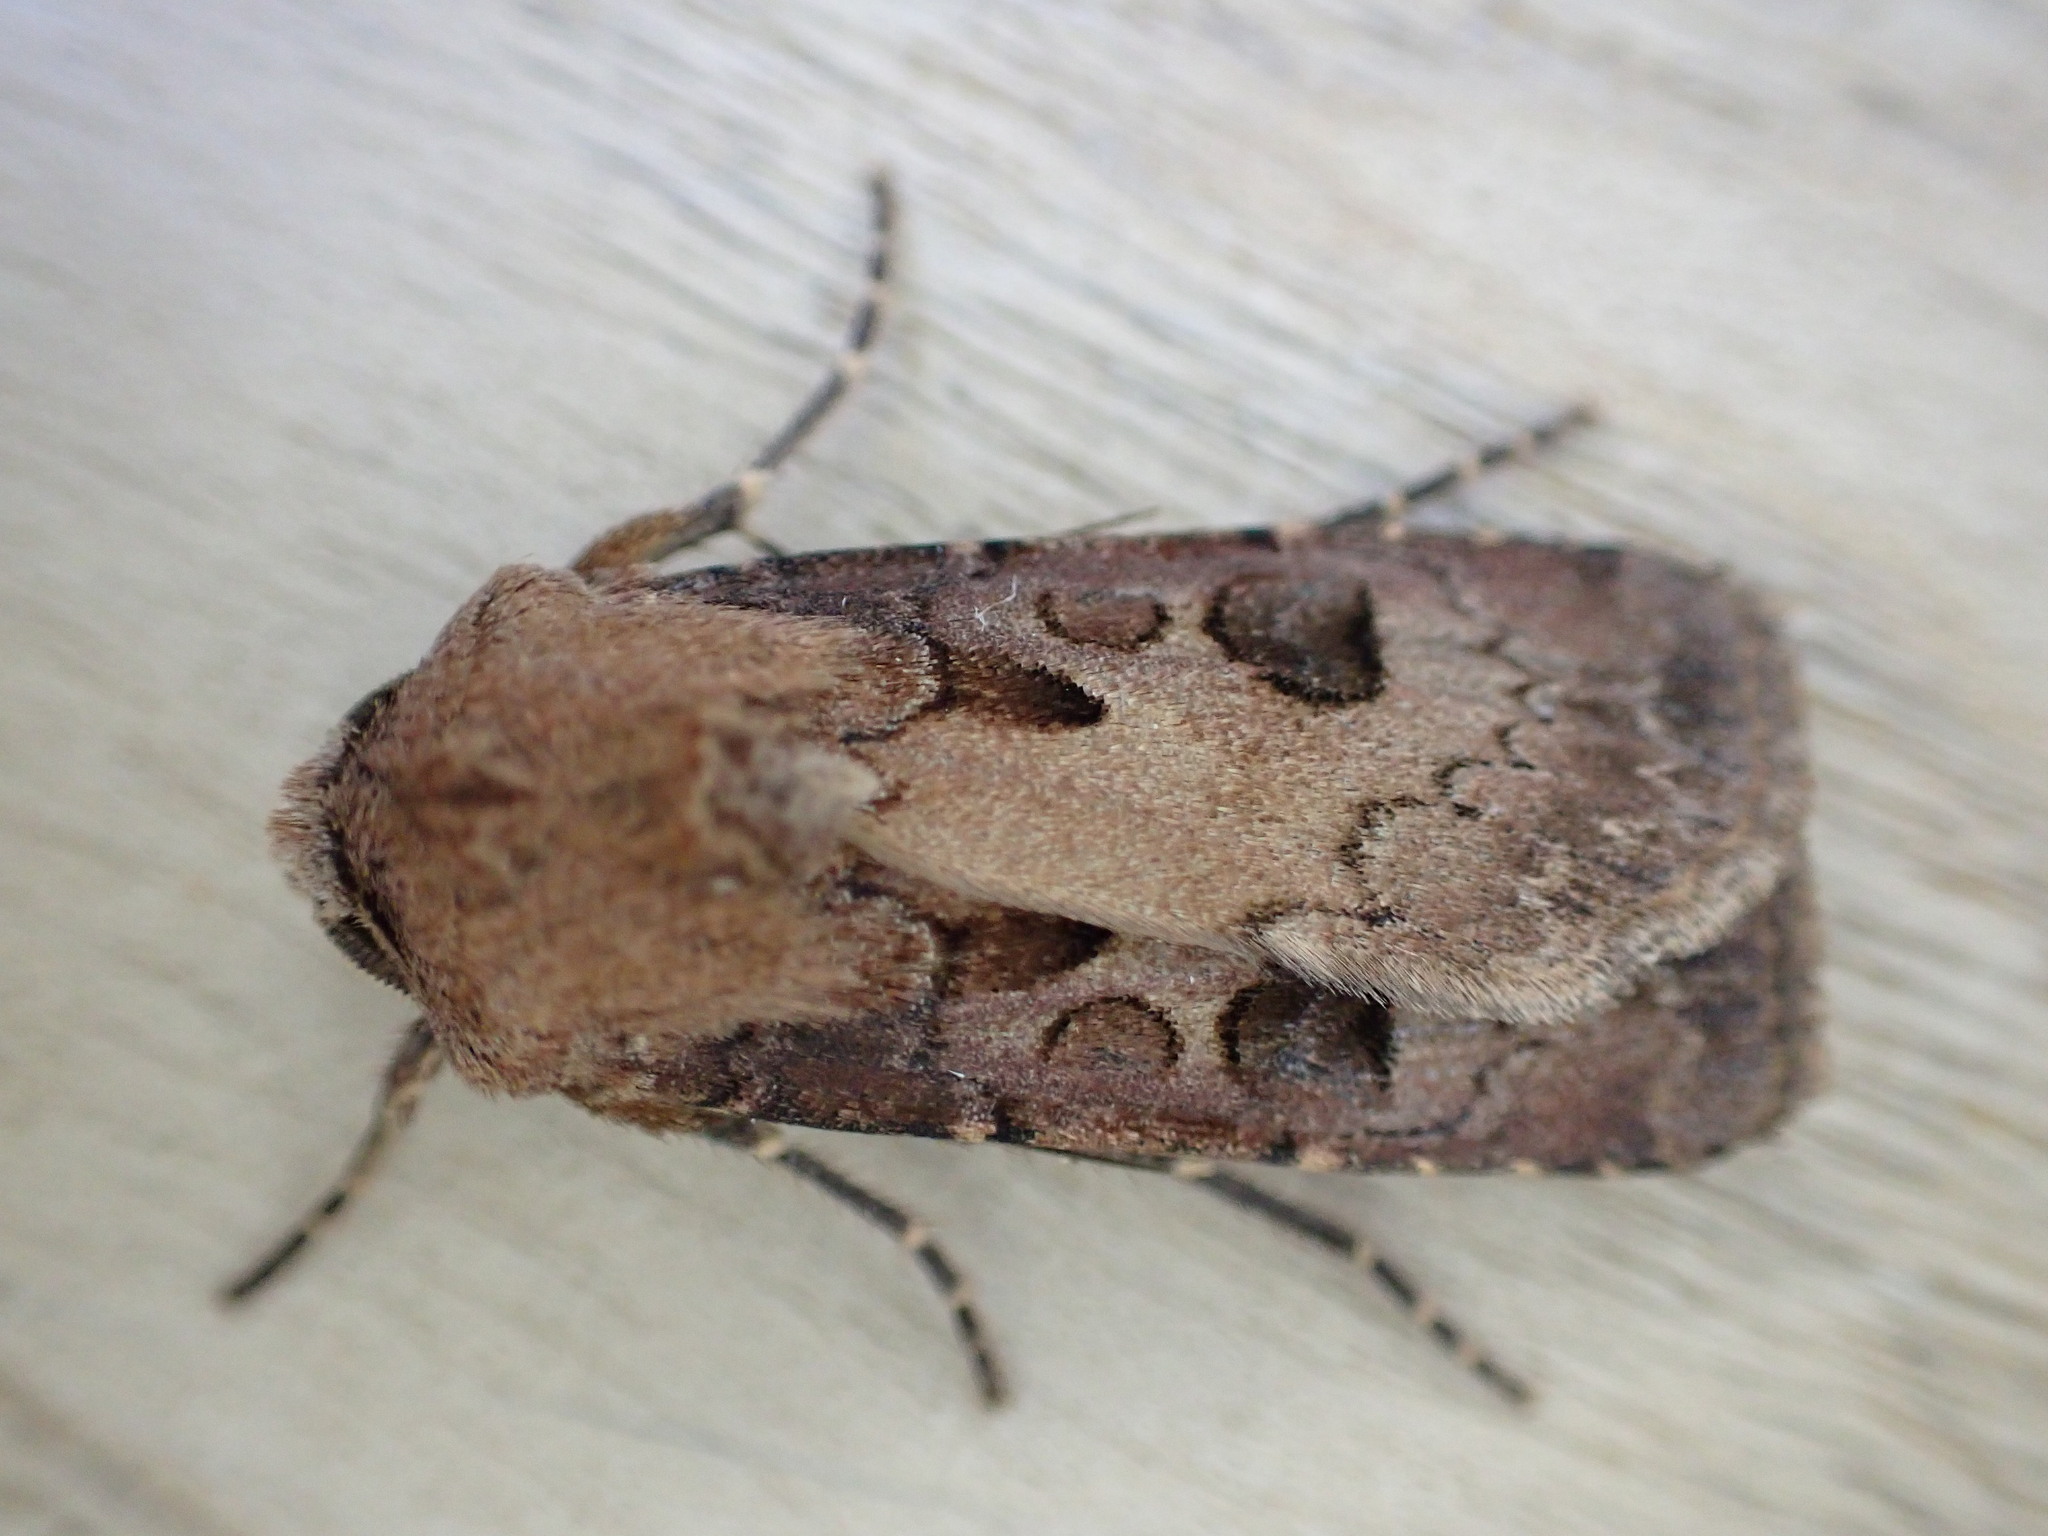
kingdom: Animalia
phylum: Arthropoda
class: Insecta
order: Lepidoptera
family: Noctuidae
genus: Agrotis
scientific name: Agrotis exclamationis
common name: Heart and dart
